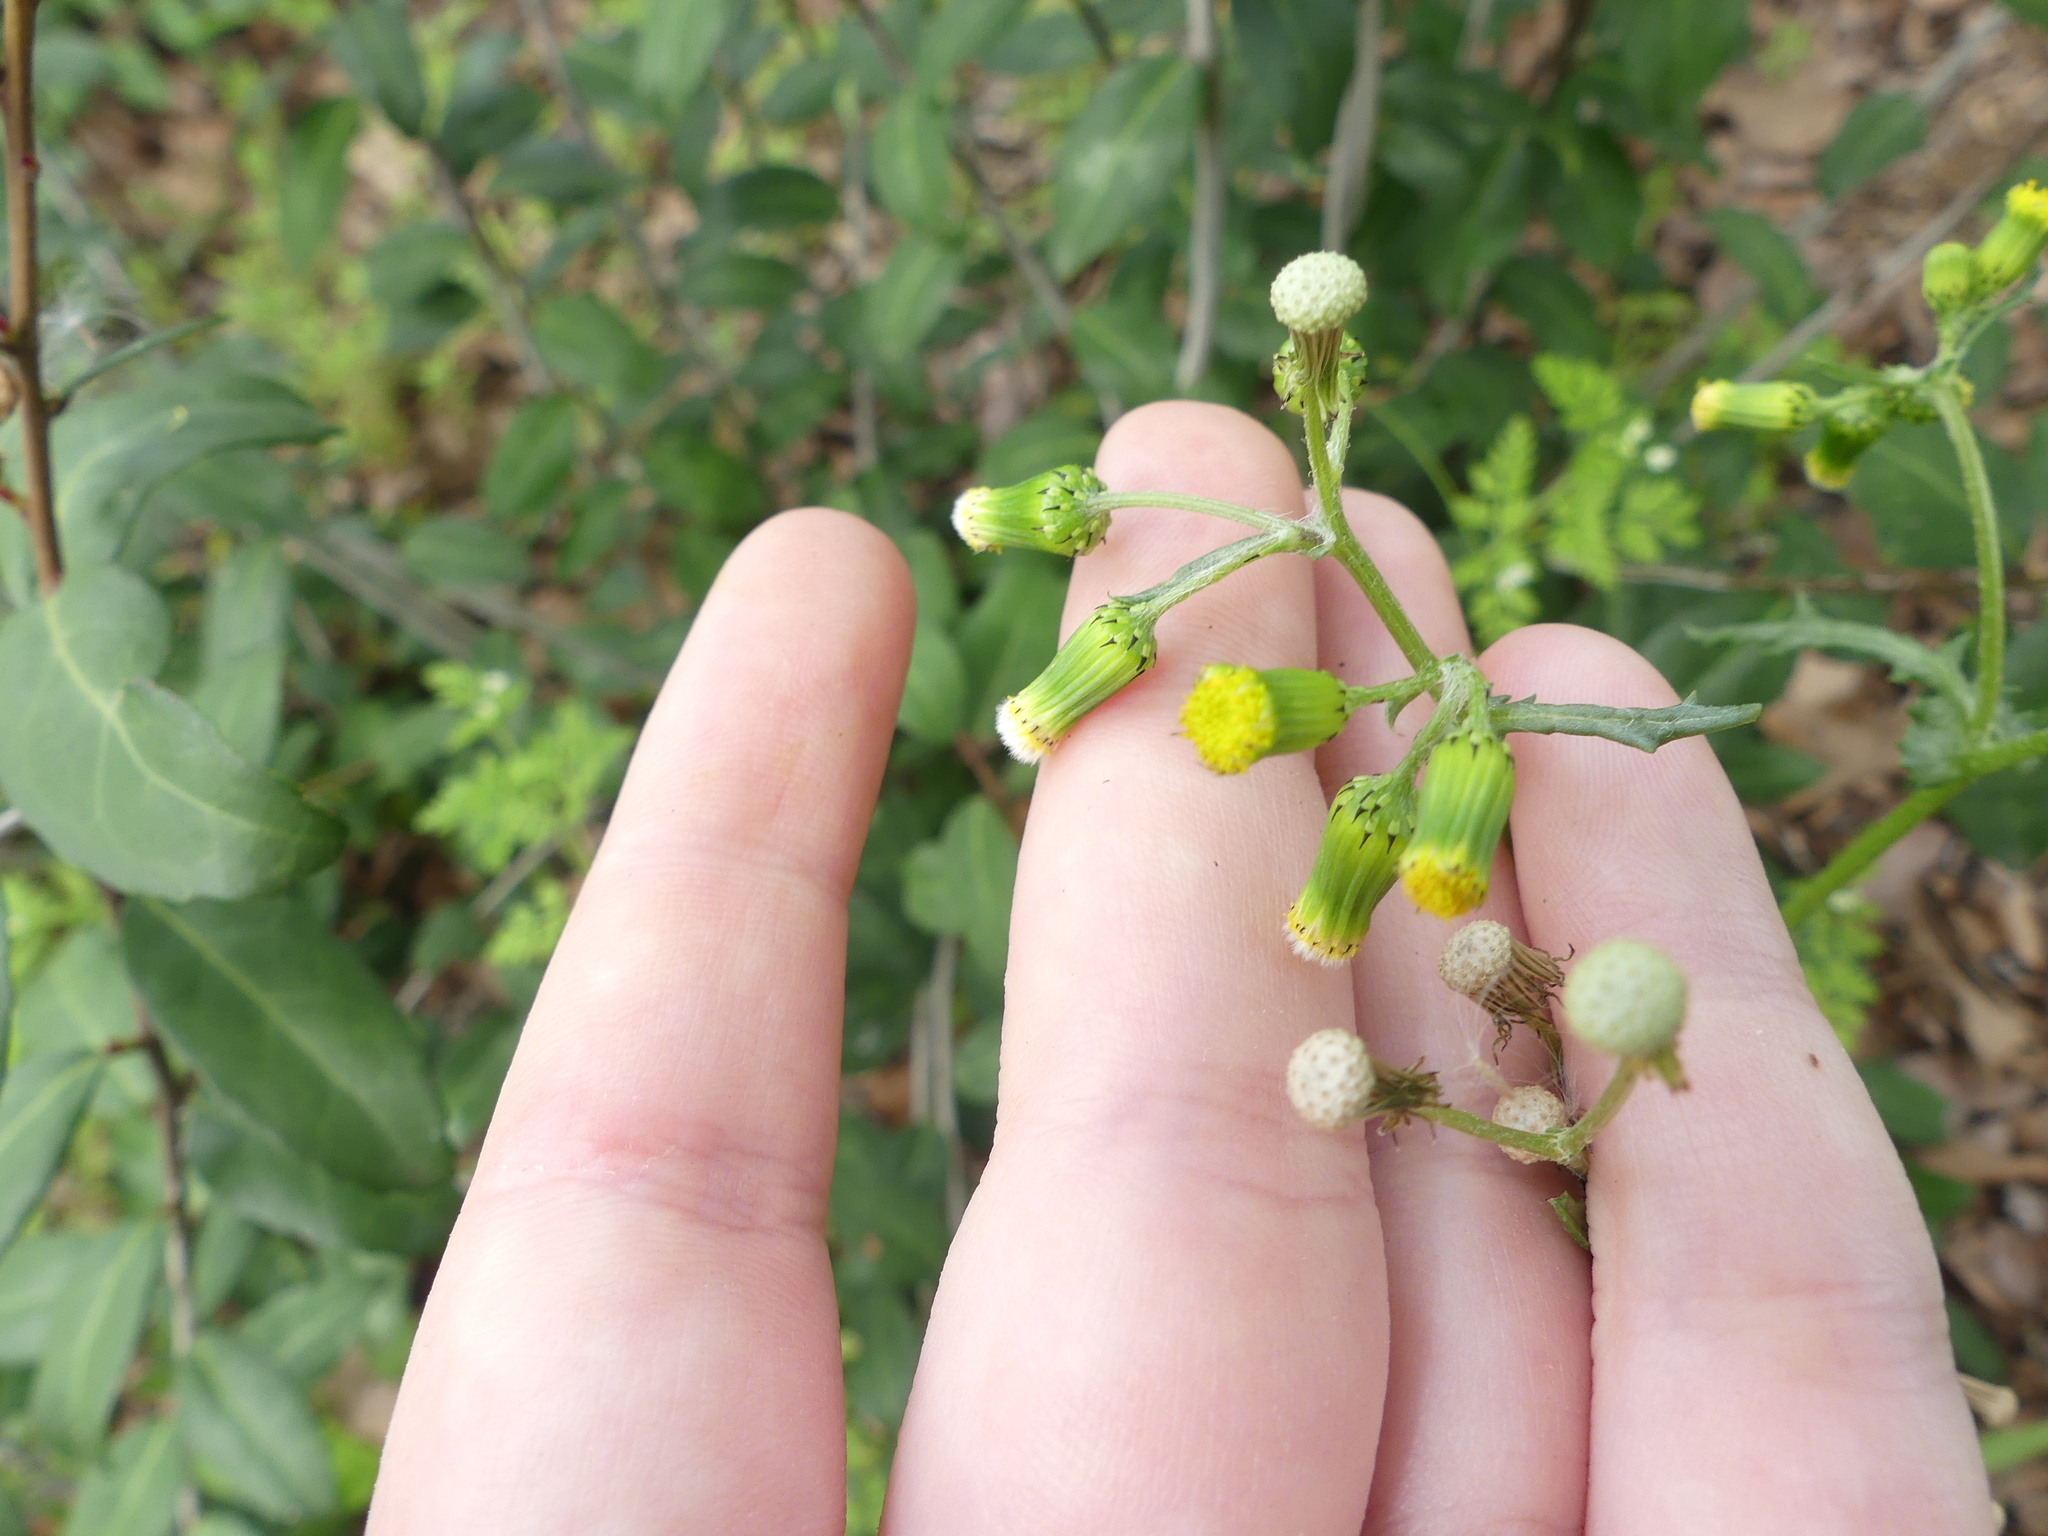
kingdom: Plantae
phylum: Tracheophyta
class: Magnoliopsida
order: Asterales
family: Asteraceae
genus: Senecio
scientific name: Senecio vulgaris
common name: Old-man-in-the-spring
